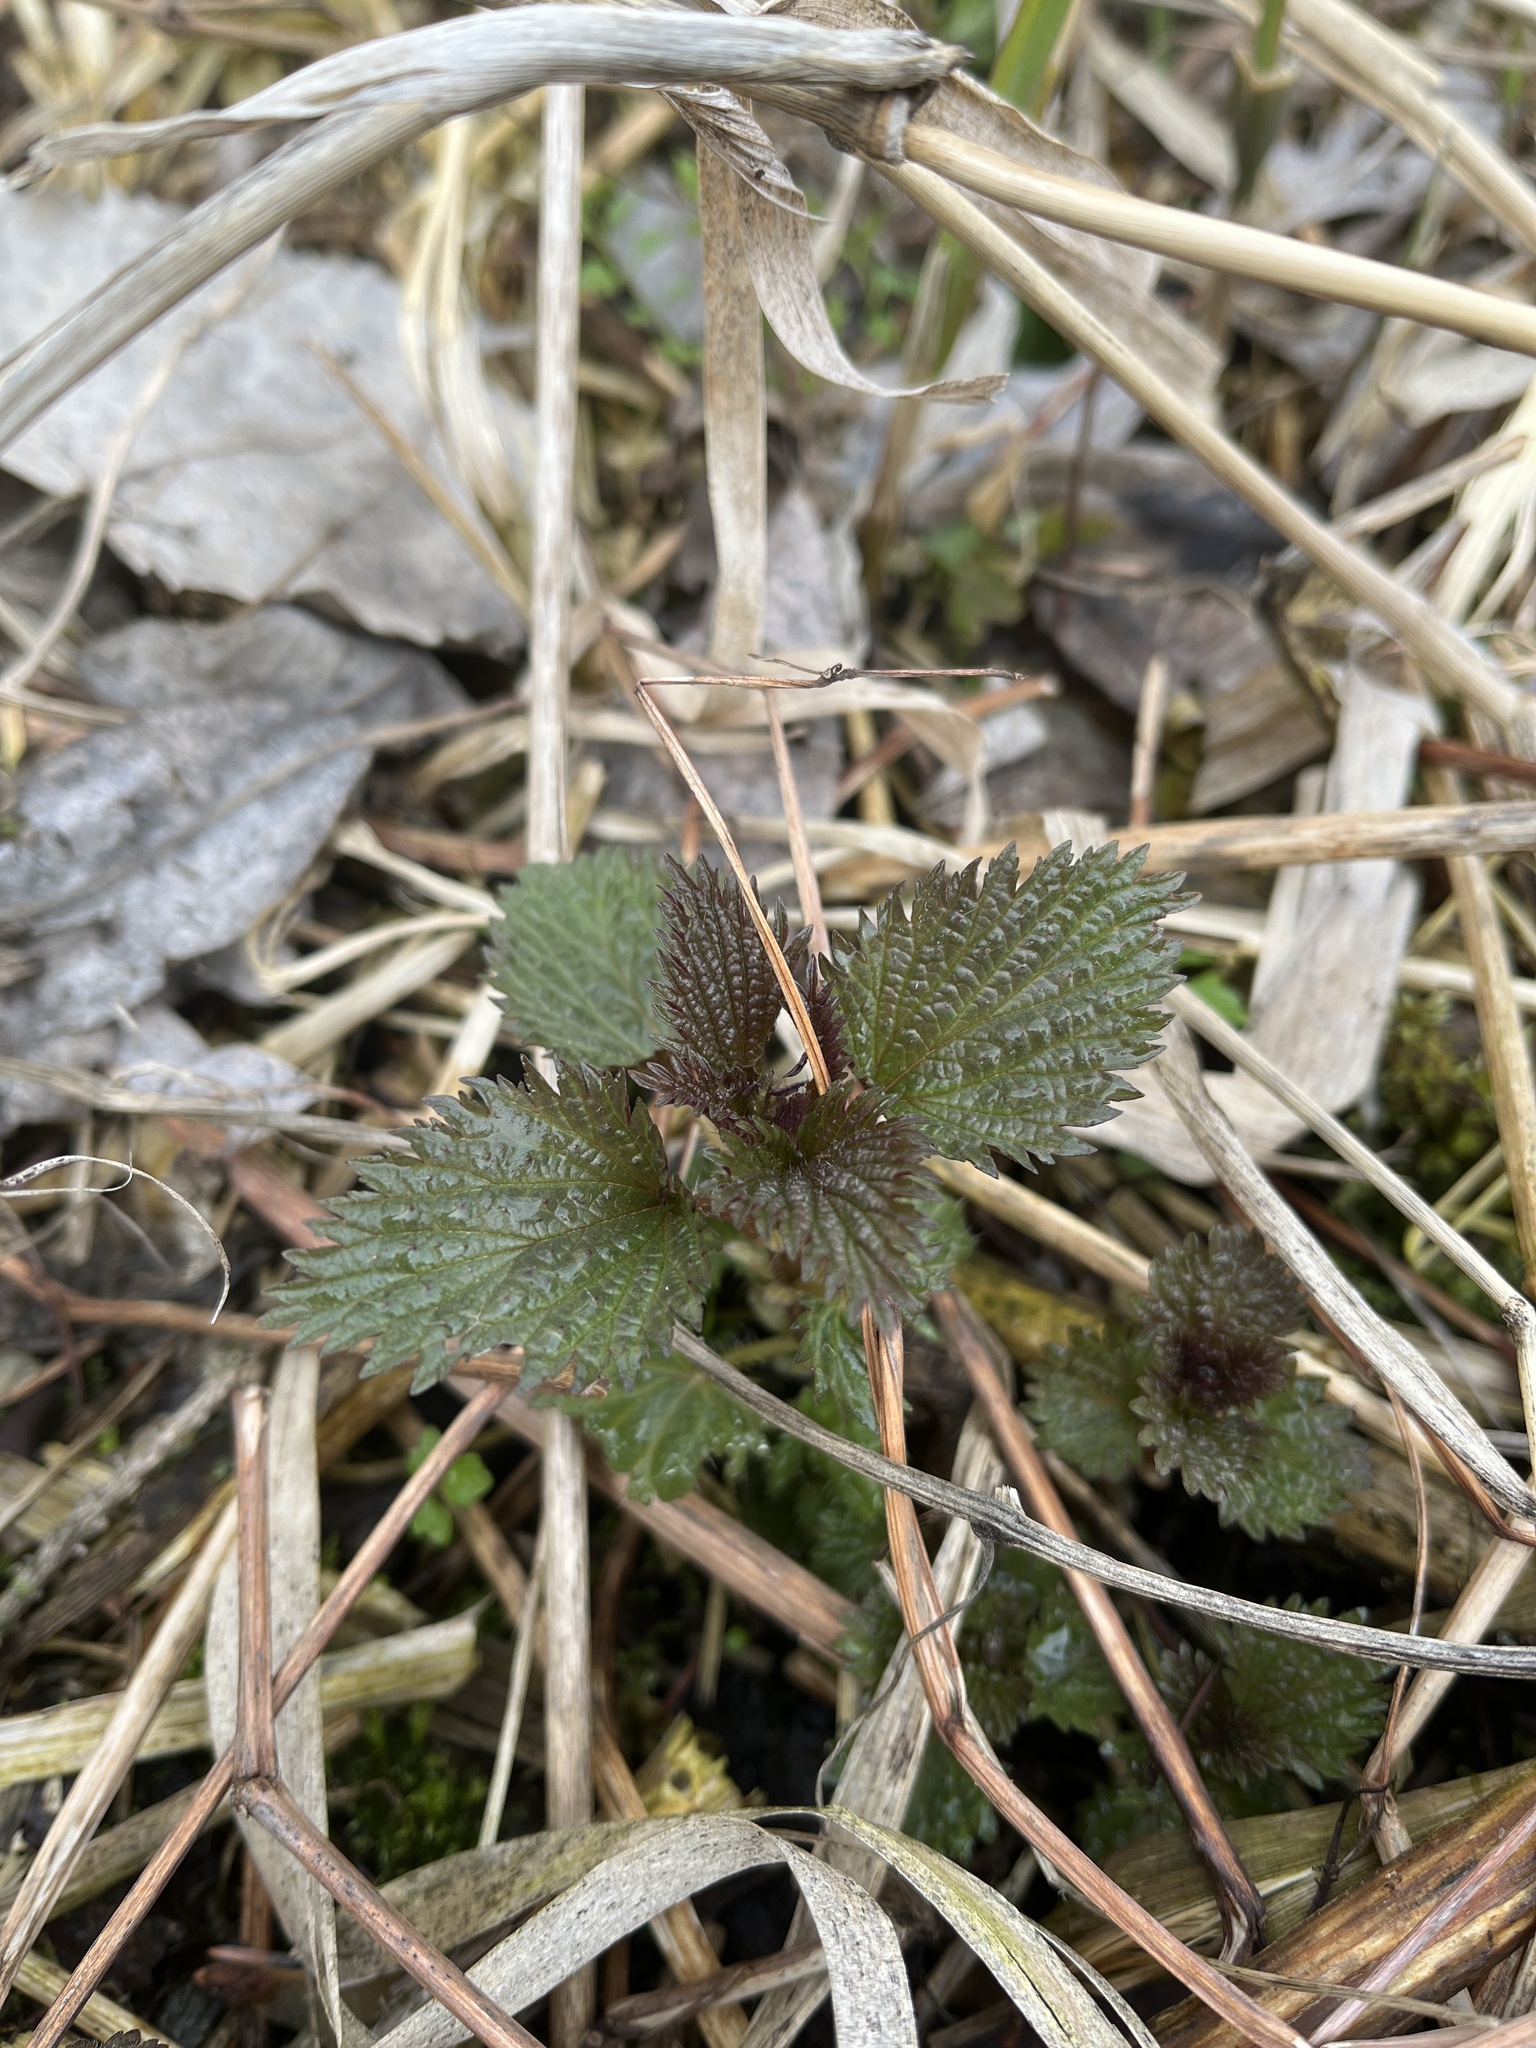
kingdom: Plantae
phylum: Tracheophyta
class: Magnoliopsida
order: Rosales
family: Urticaceae
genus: Urtica
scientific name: Urtica dioica
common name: Common nettle
